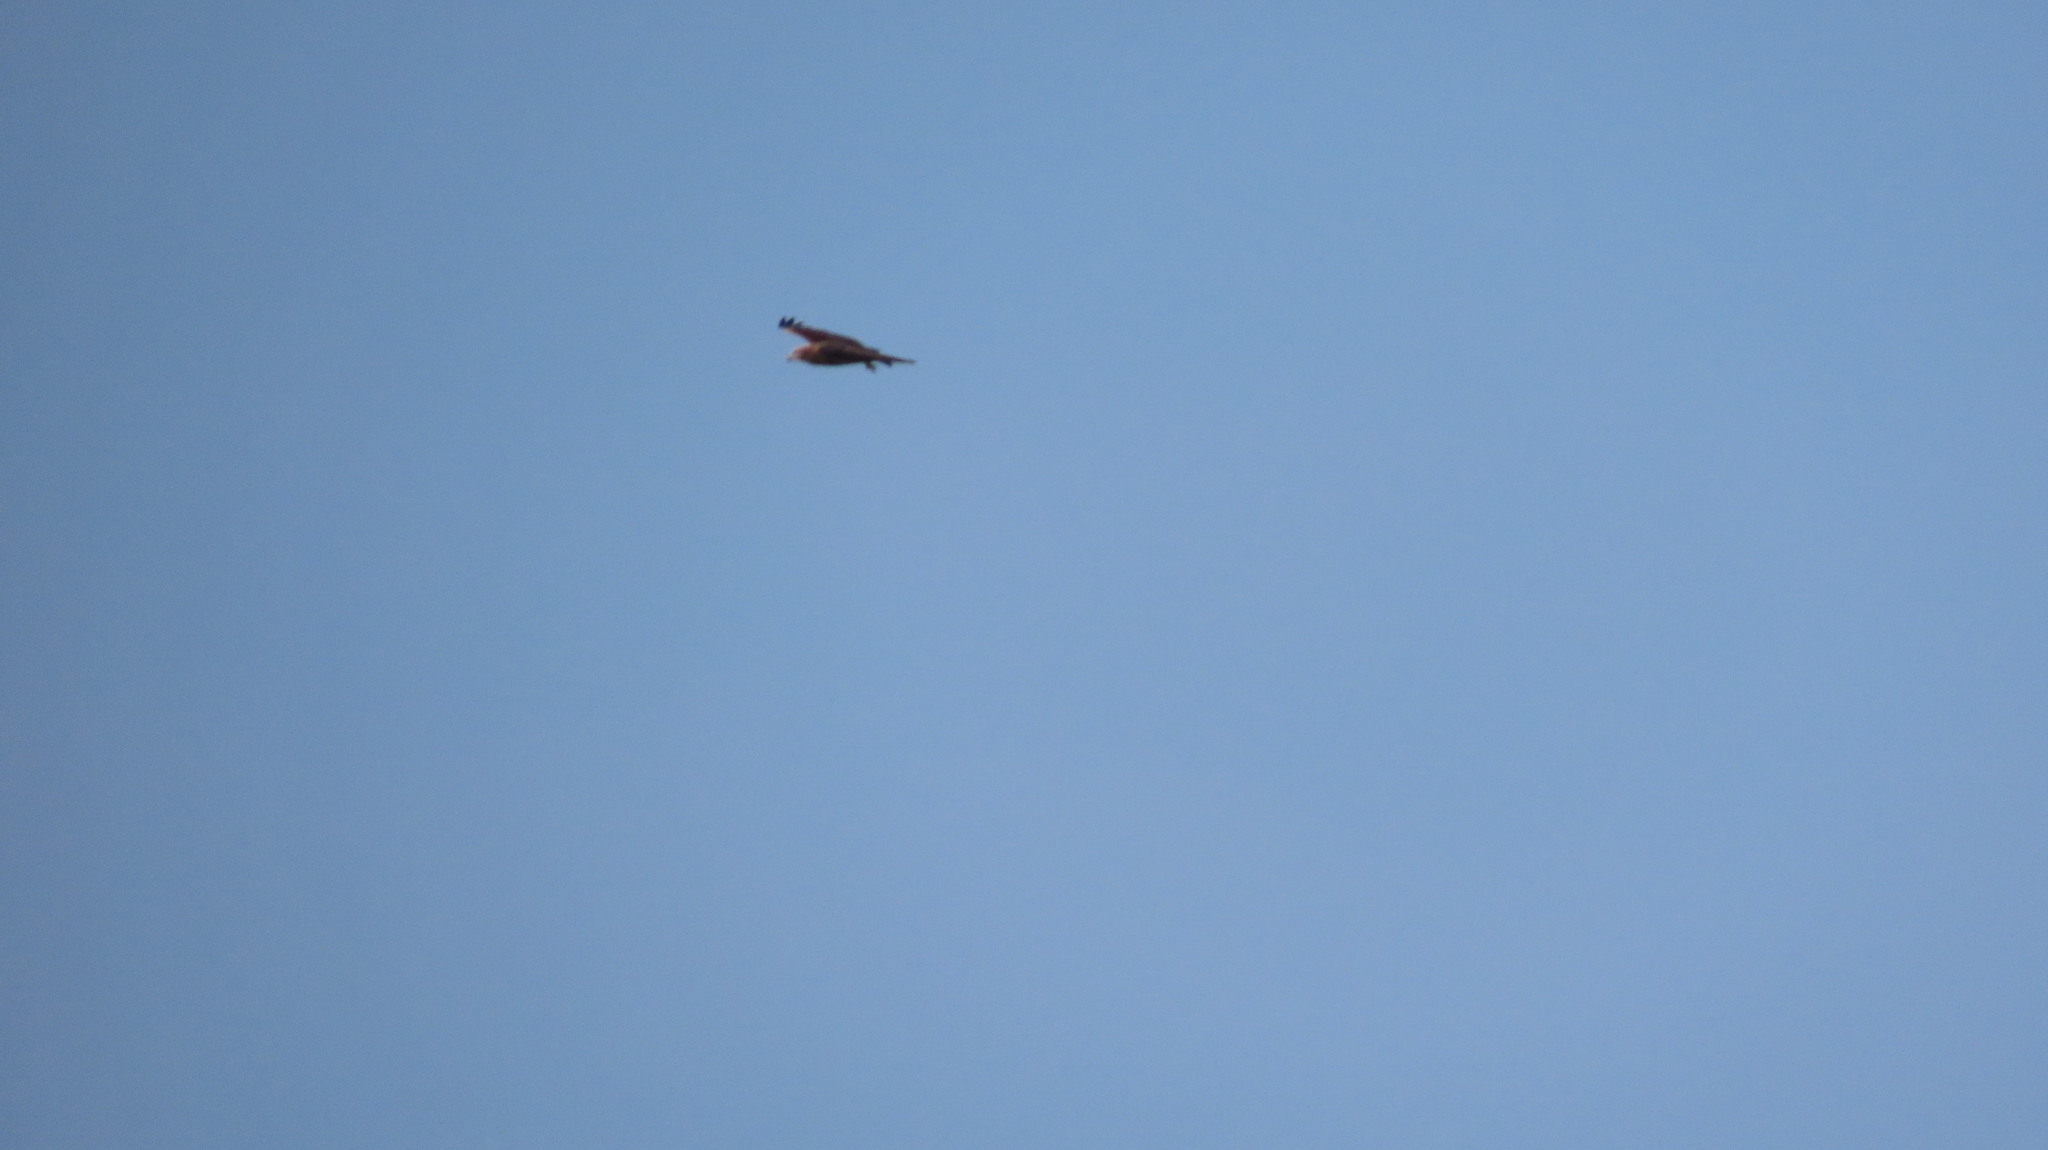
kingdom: Animalia
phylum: Chordata
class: Aves
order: Accipitriformes
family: Accipitridae
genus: Milvus
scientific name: Milvus migrans
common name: Black kite
